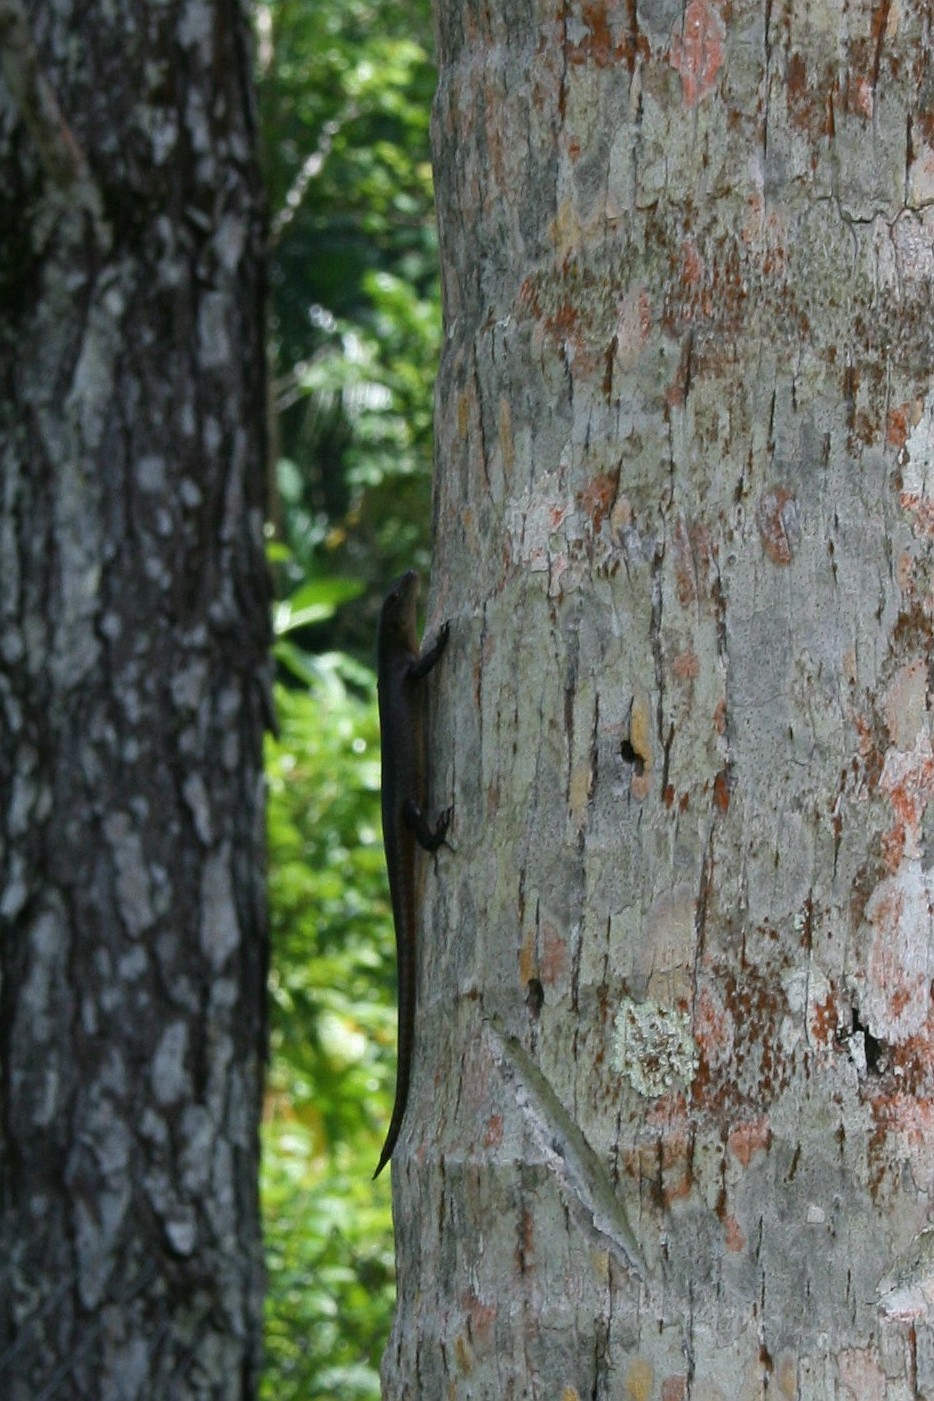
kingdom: Animalia
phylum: Chordata
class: Squamata
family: Scincidae
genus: Emoia
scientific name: Emoia nigra
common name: Black emo skink
